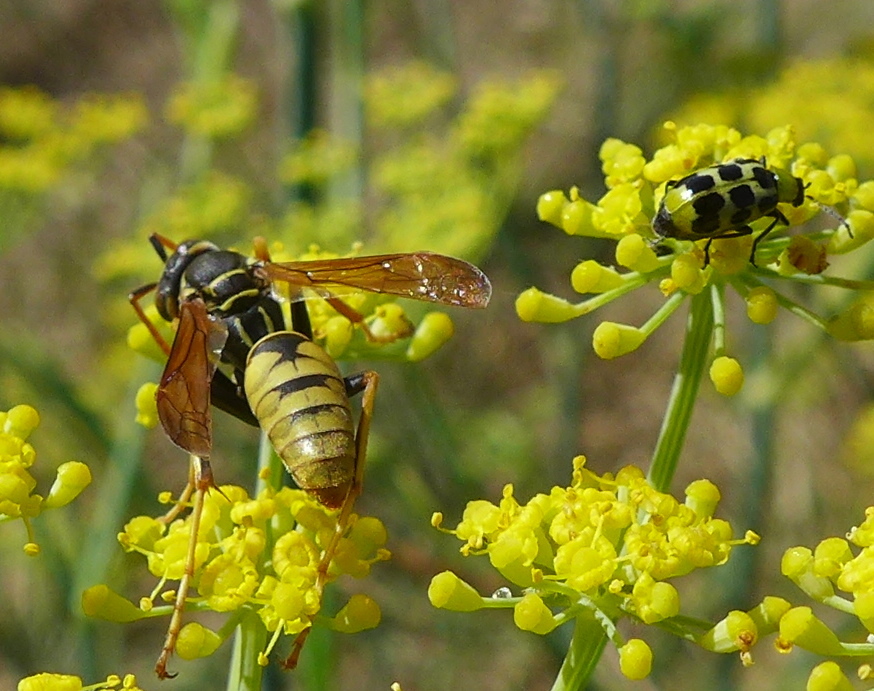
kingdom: Animalia
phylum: Arthropoda
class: Insecta
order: Hymenoptera
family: Eumenidae
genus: Polistes
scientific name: Polistes aurifer
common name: Paper wasp
